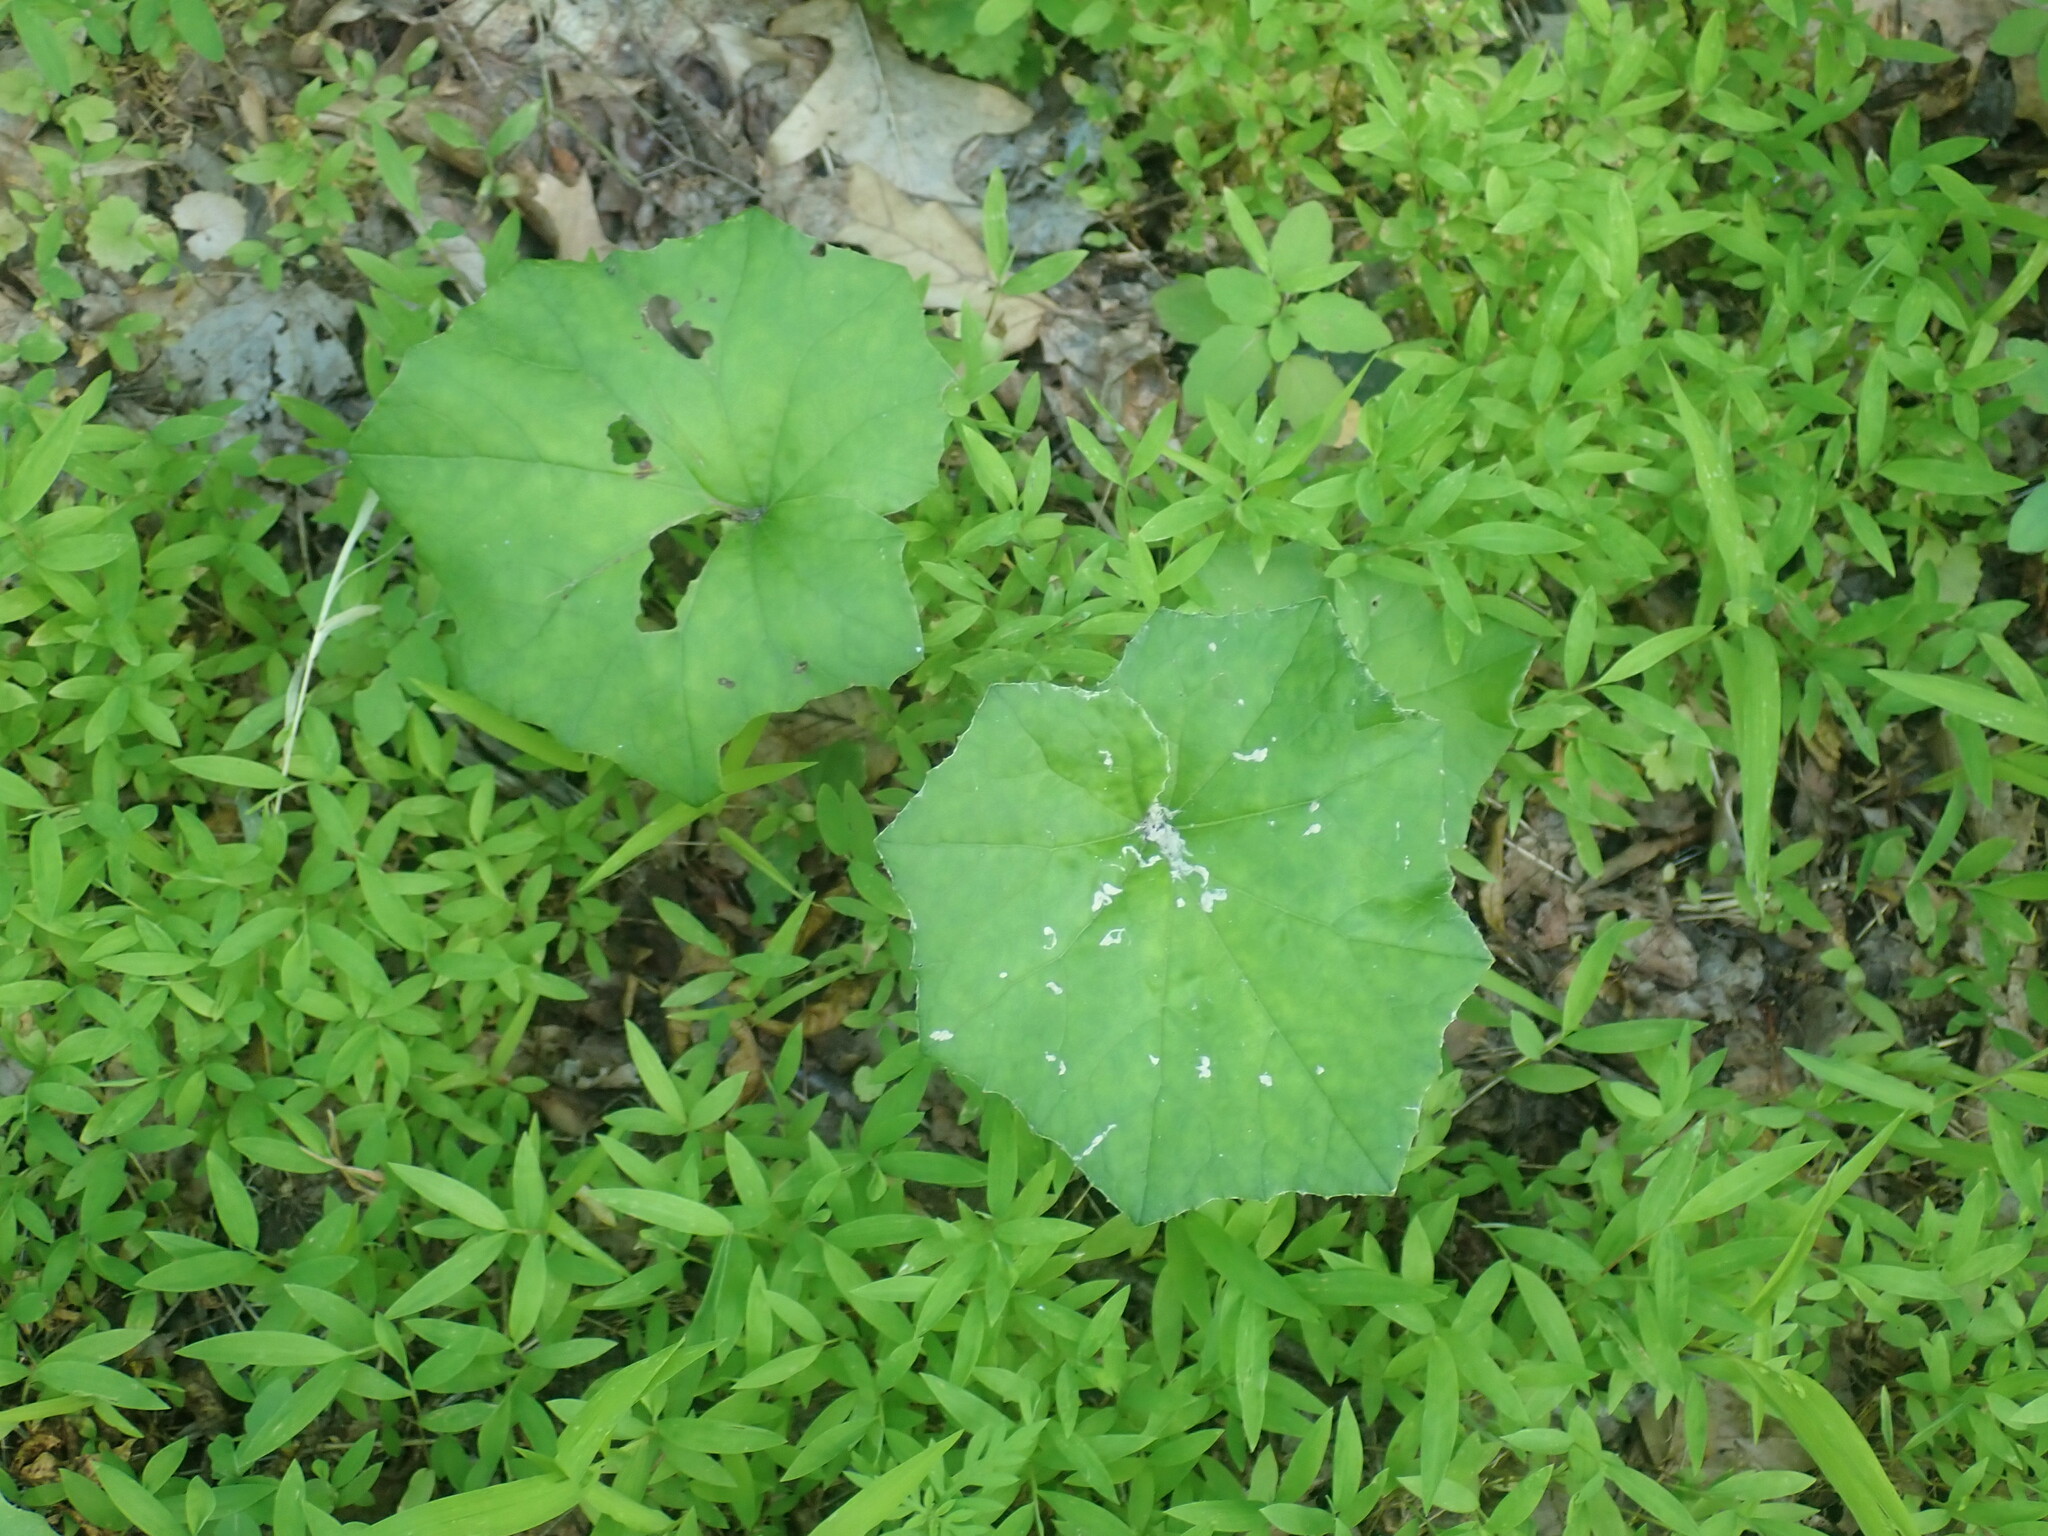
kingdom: Plantae
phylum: Tracheophyta
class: Magnoliopsida
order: Asterales
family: Asteraceae
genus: Tussilago
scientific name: Tussilago farfara
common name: Coltsfoot
